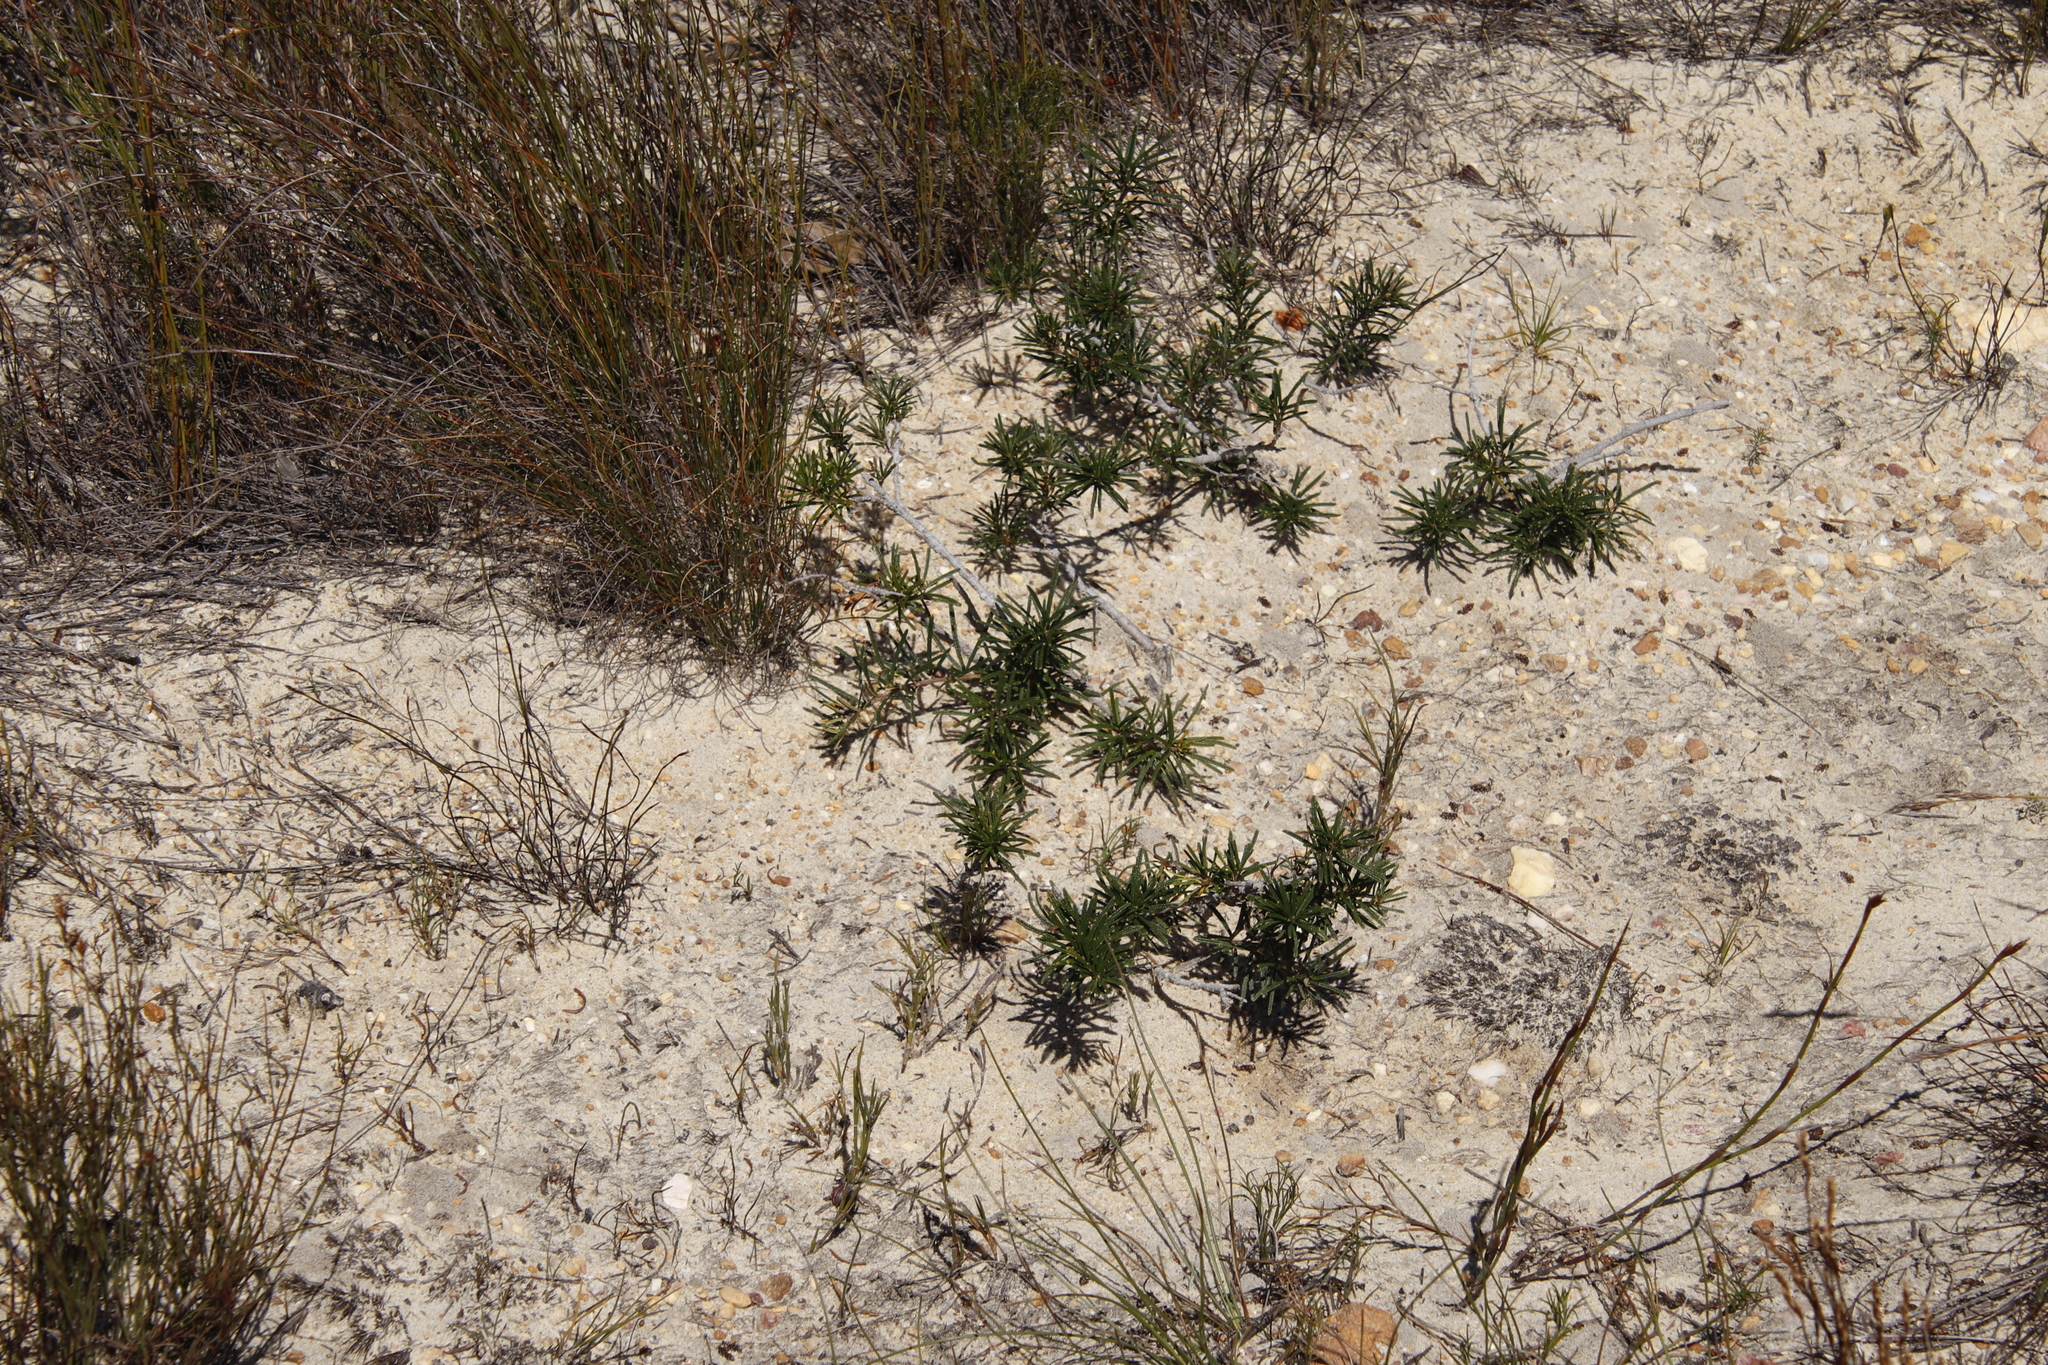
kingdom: Plantae
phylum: Tracheophyta
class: Magnoliopsida
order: Sapindales
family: Anacardiaceae
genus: Searsia
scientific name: Searsia rosmarinifolia
